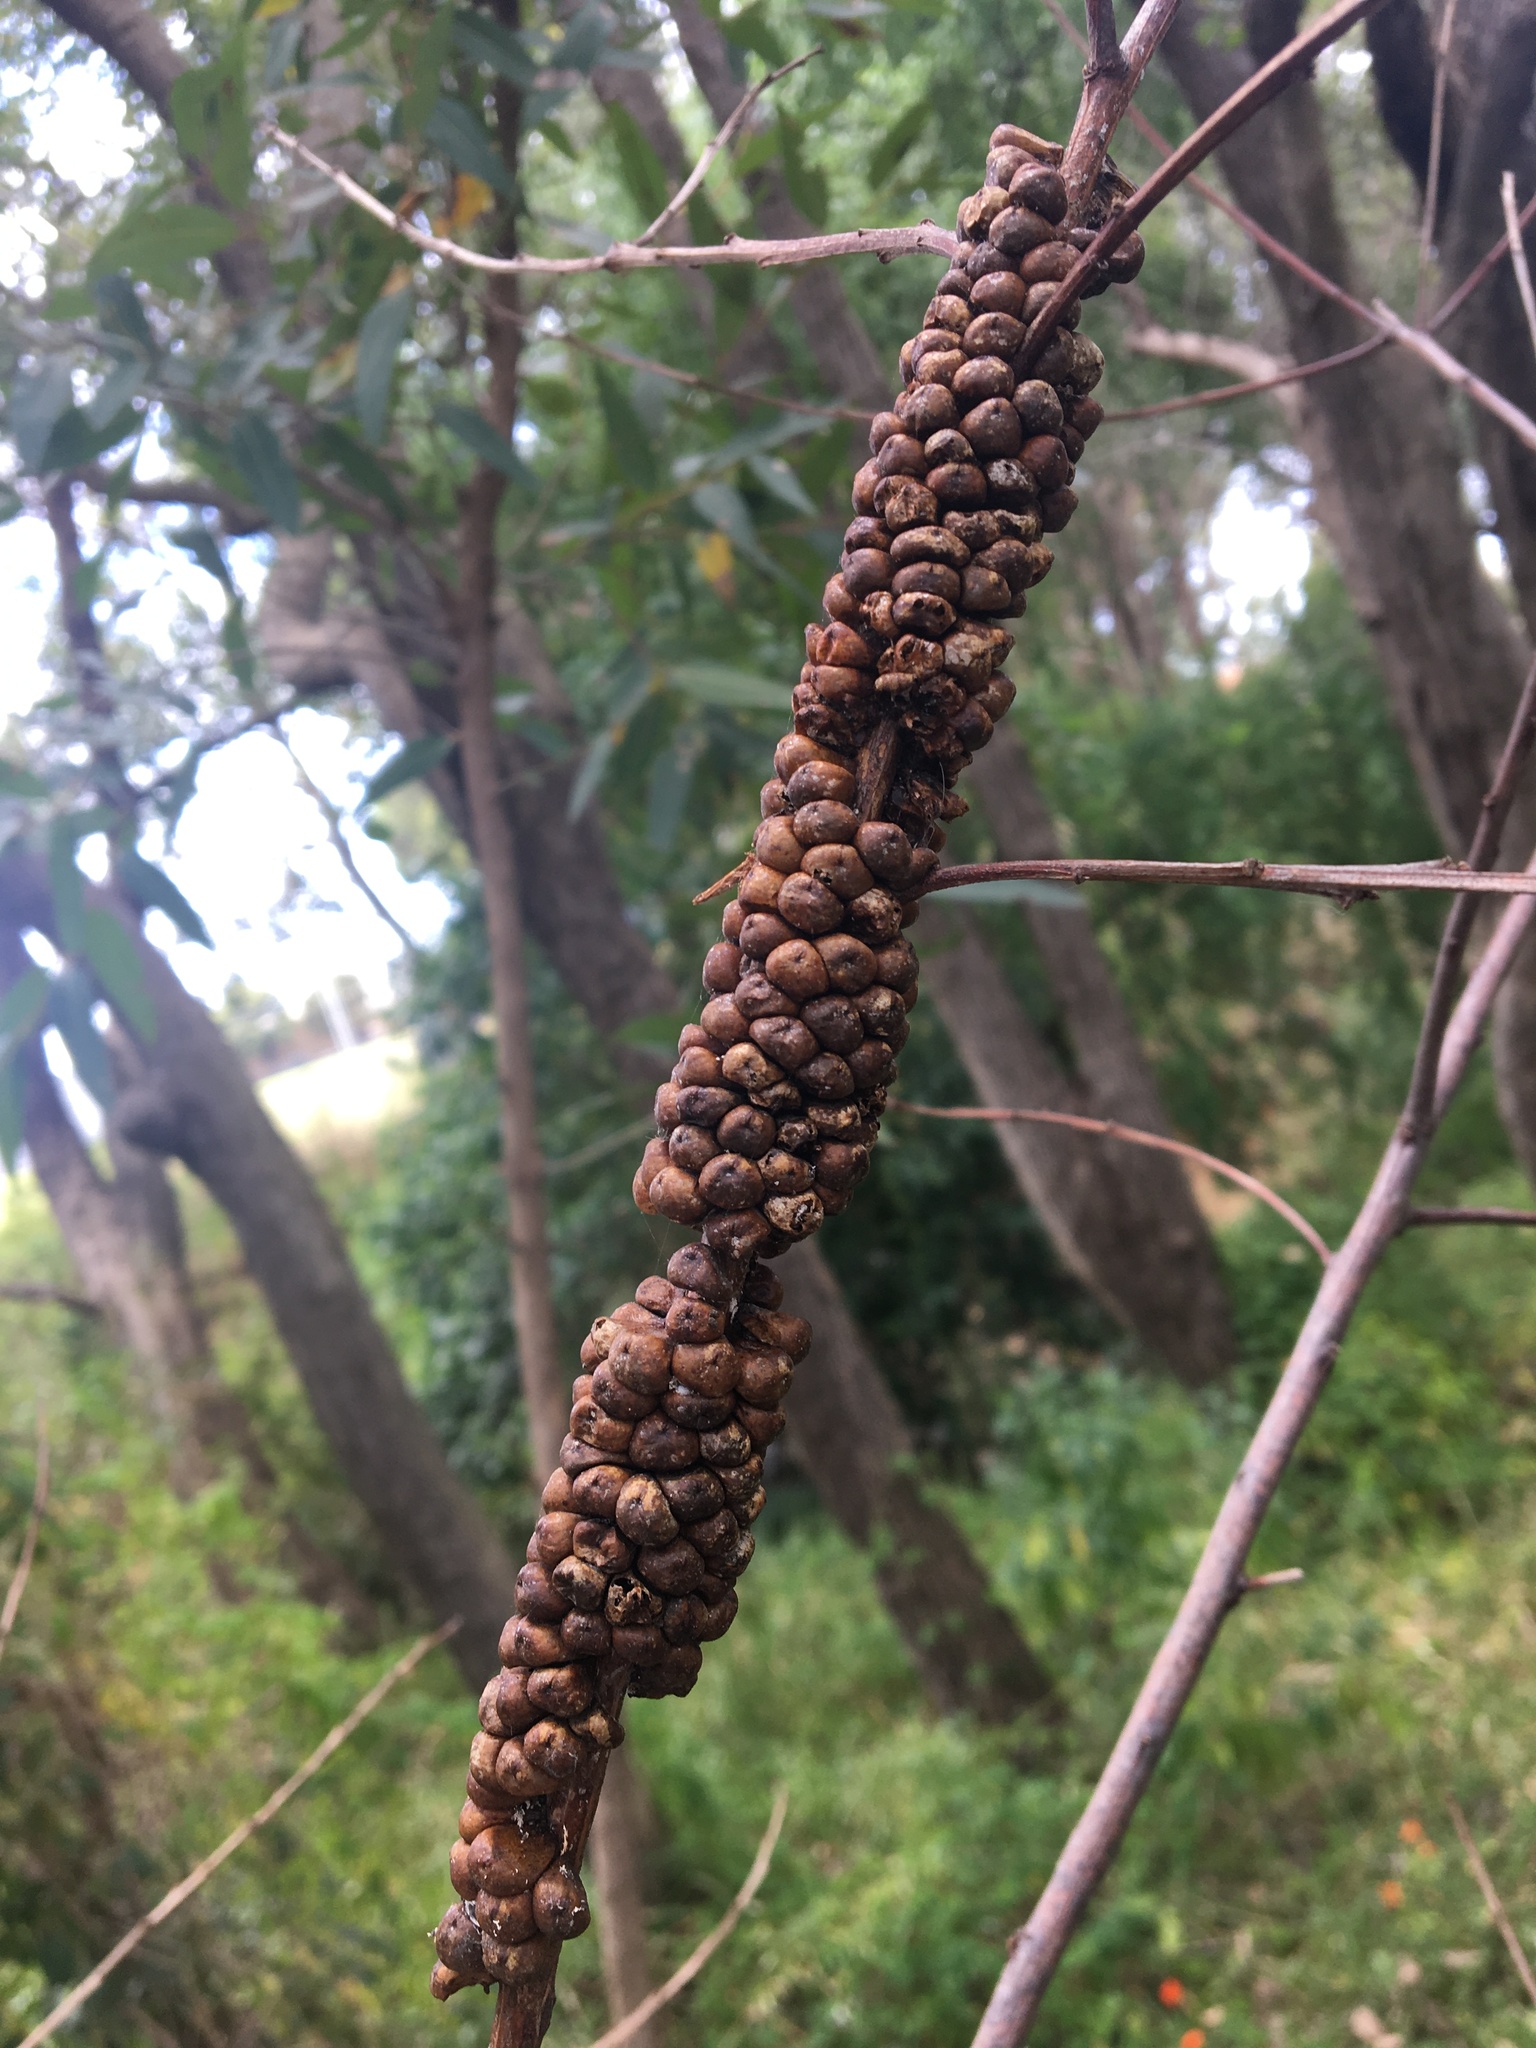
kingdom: Animalia
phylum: Arthropoda
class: Insecta
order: Hemiptera
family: Coccidae
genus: Cryptes
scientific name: Cryptes baccatus
